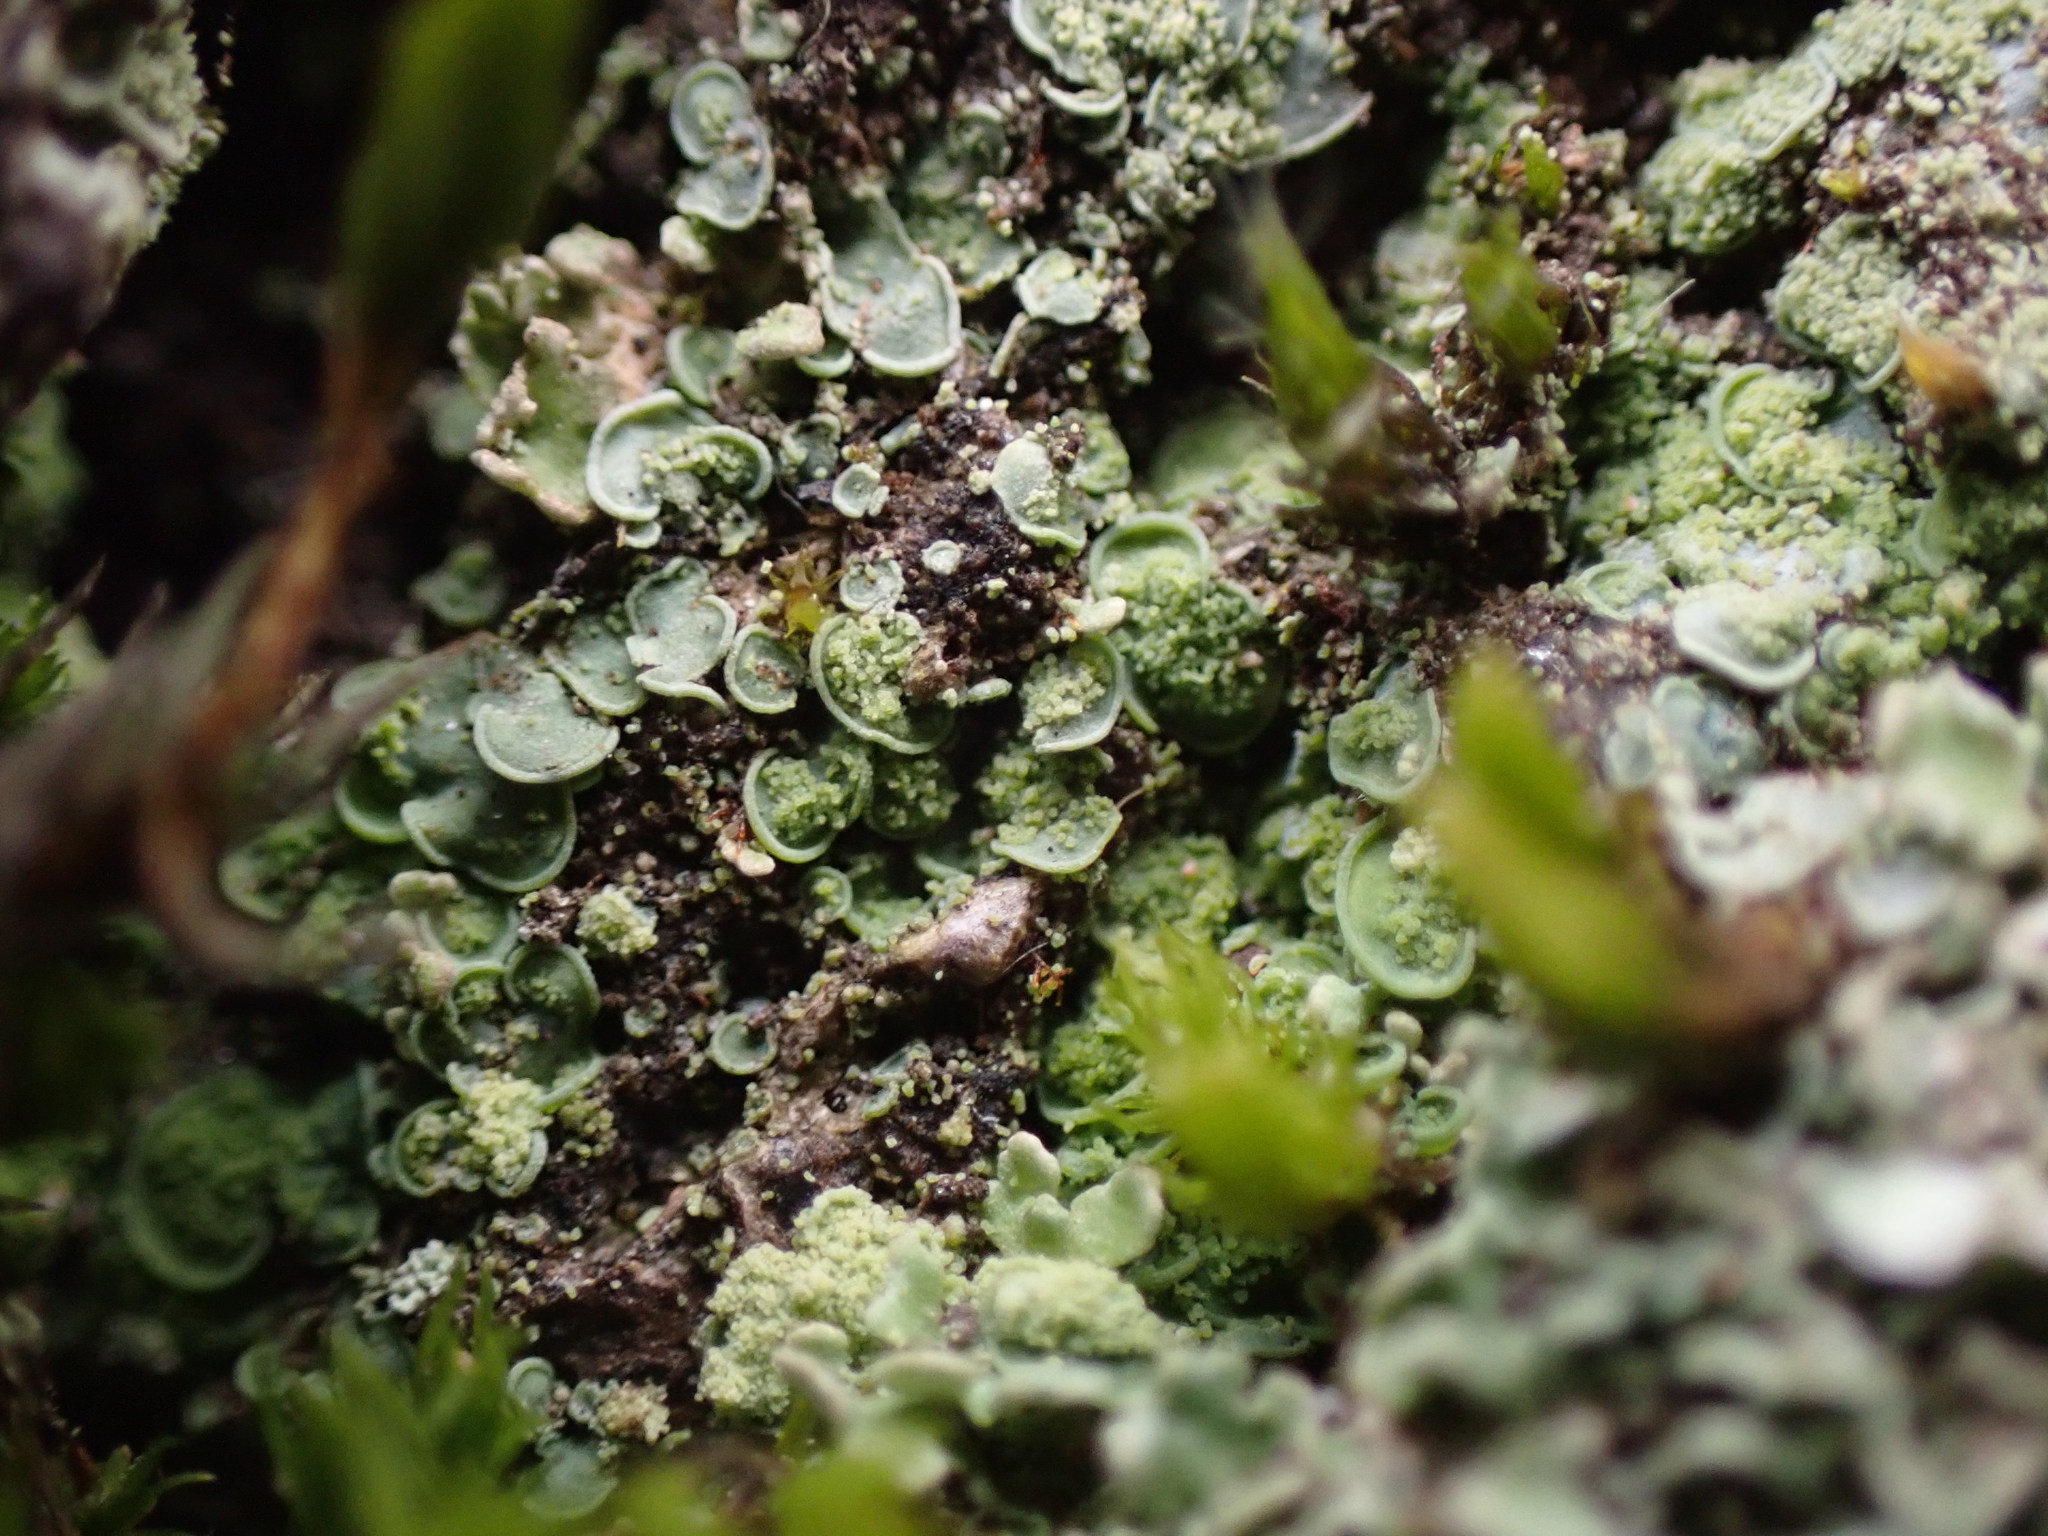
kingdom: Fungi
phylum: Ascomycota
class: Eurotiomycetes
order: Verrucariales
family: Verrucariaceae
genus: Normandina
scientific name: Normandina pulchella
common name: Elf ears lichen
